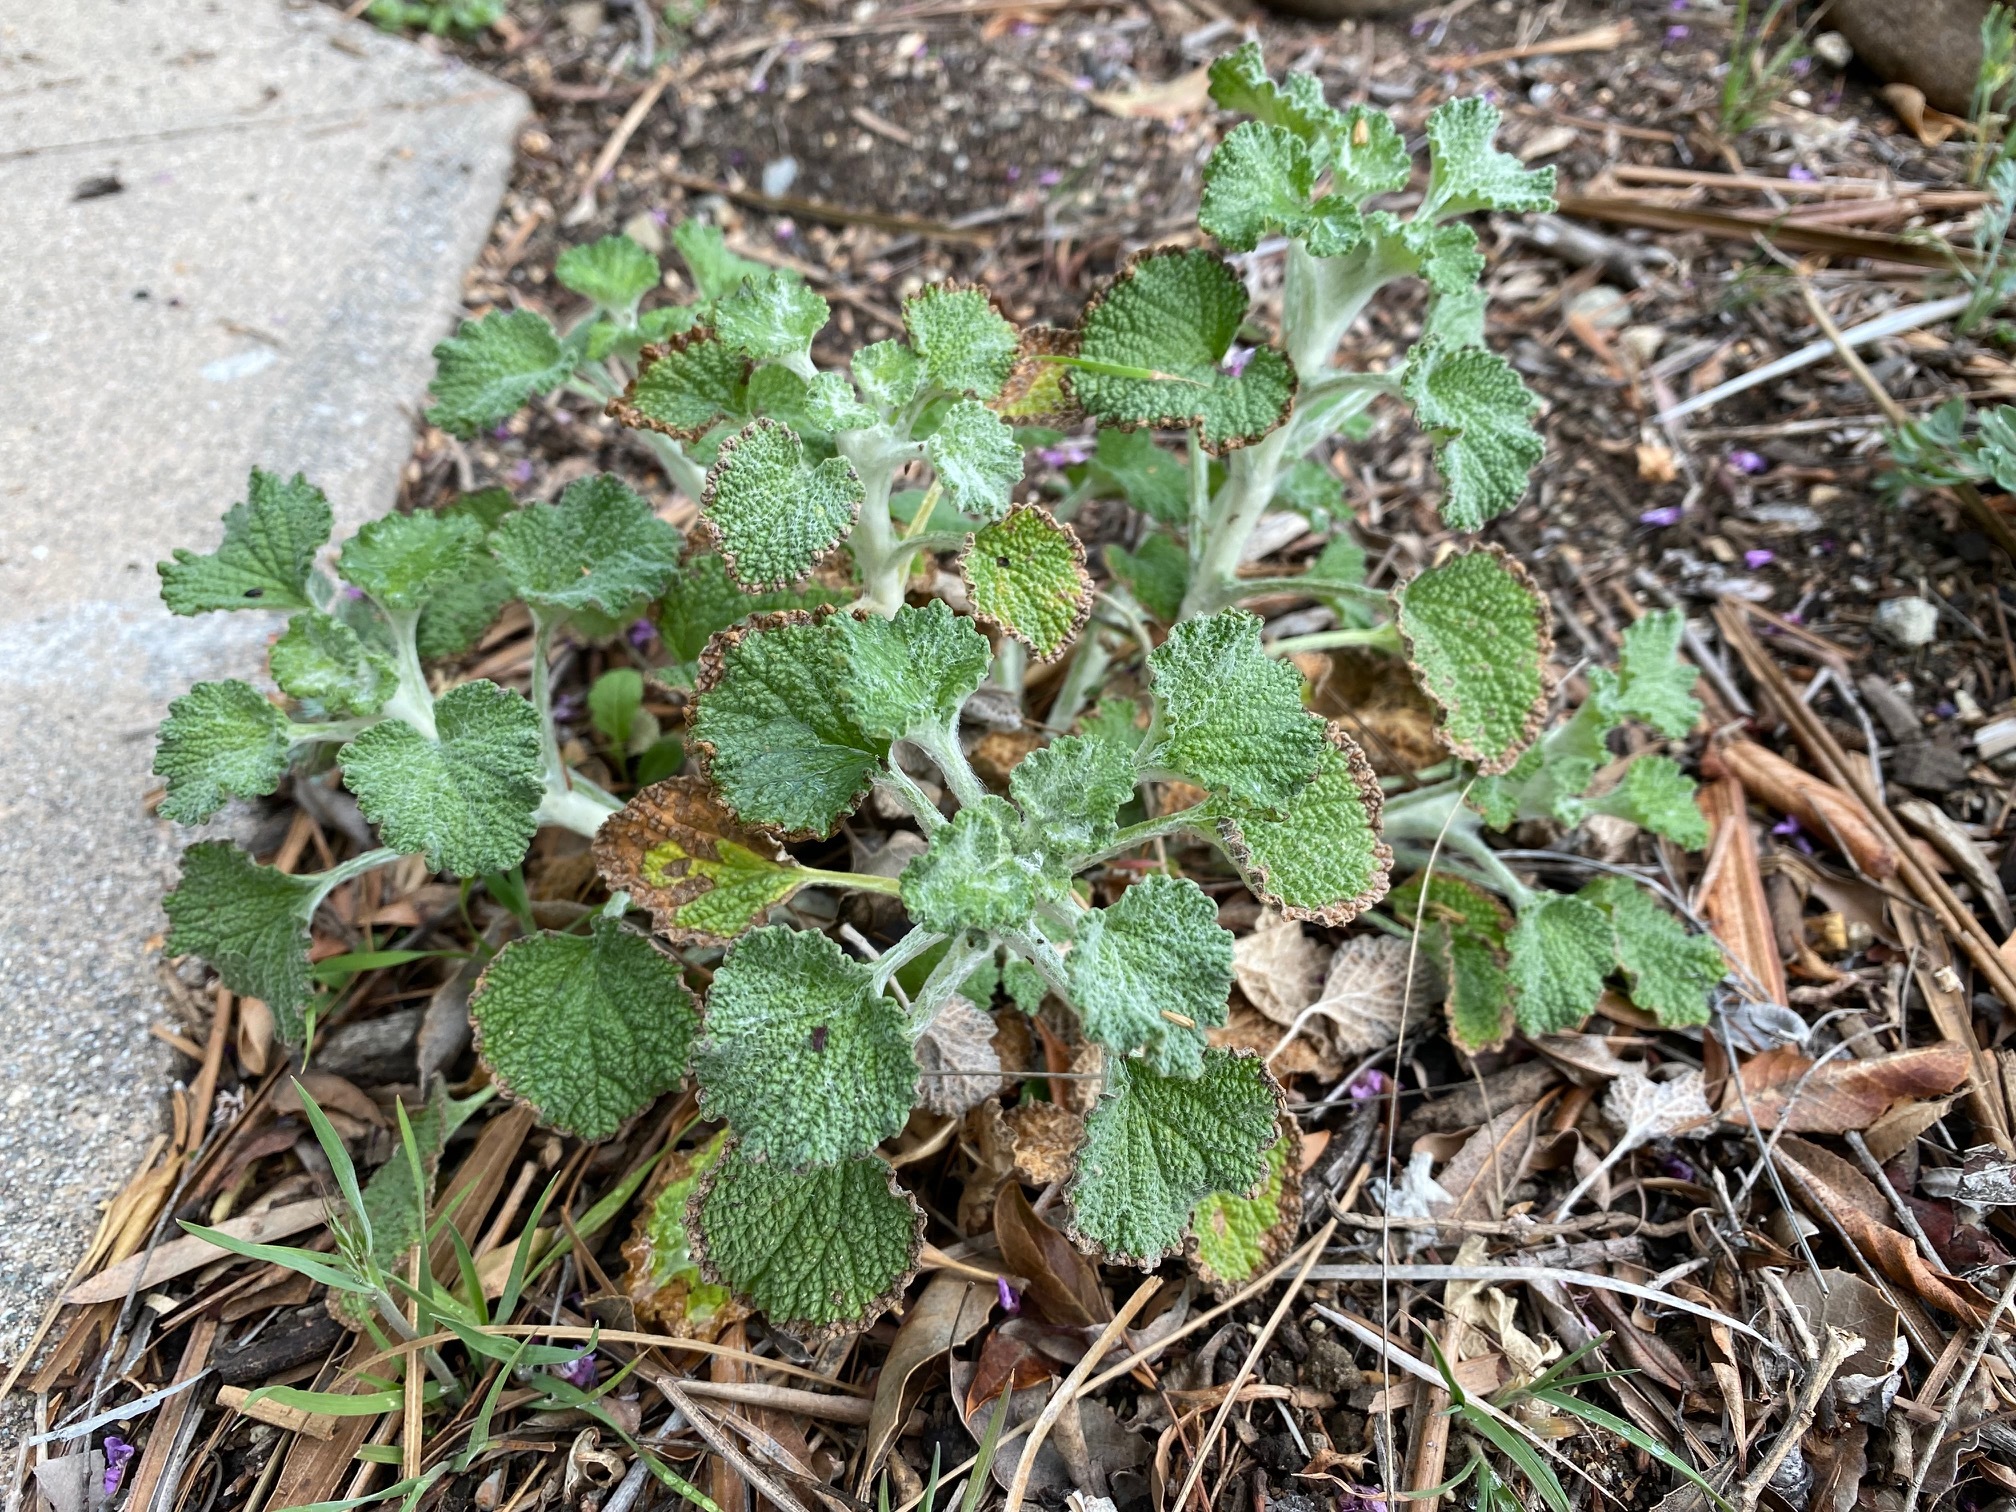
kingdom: Plantae
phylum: Tracheophyta
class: Magnoliopsida
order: Lamiales
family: Lamiaceae
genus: Marrubium
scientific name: Marrubium vulgare
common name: Horehound
